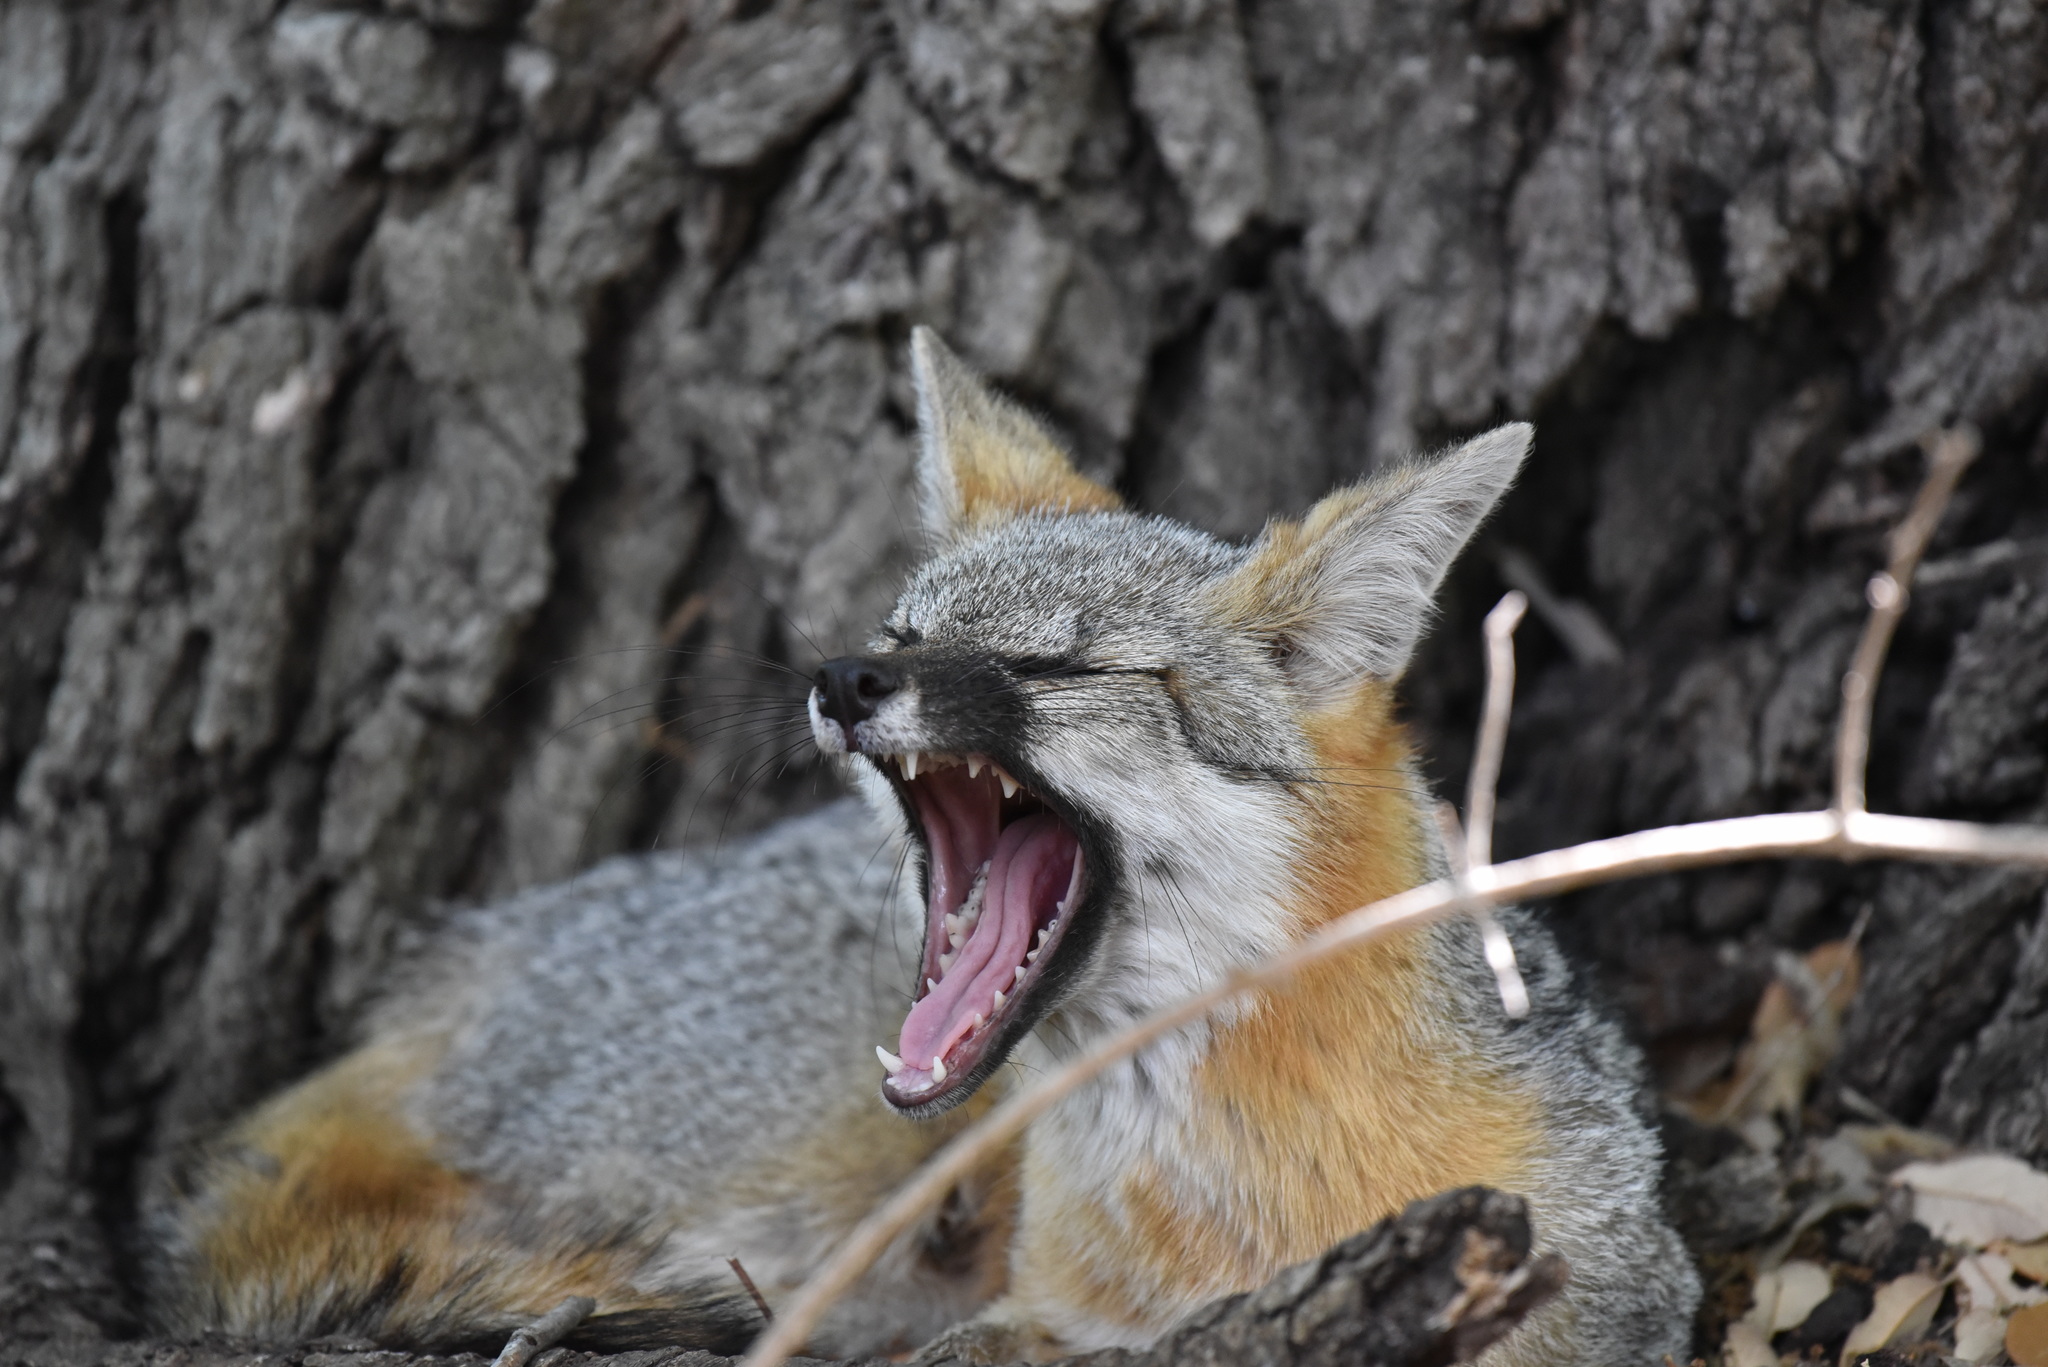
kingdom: Animalia
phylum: Chordata
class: Mammalia
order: Carnivora
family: Canidae
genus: Urocyon
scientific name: Urocyon cinereoargenteus
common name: Gray fox
